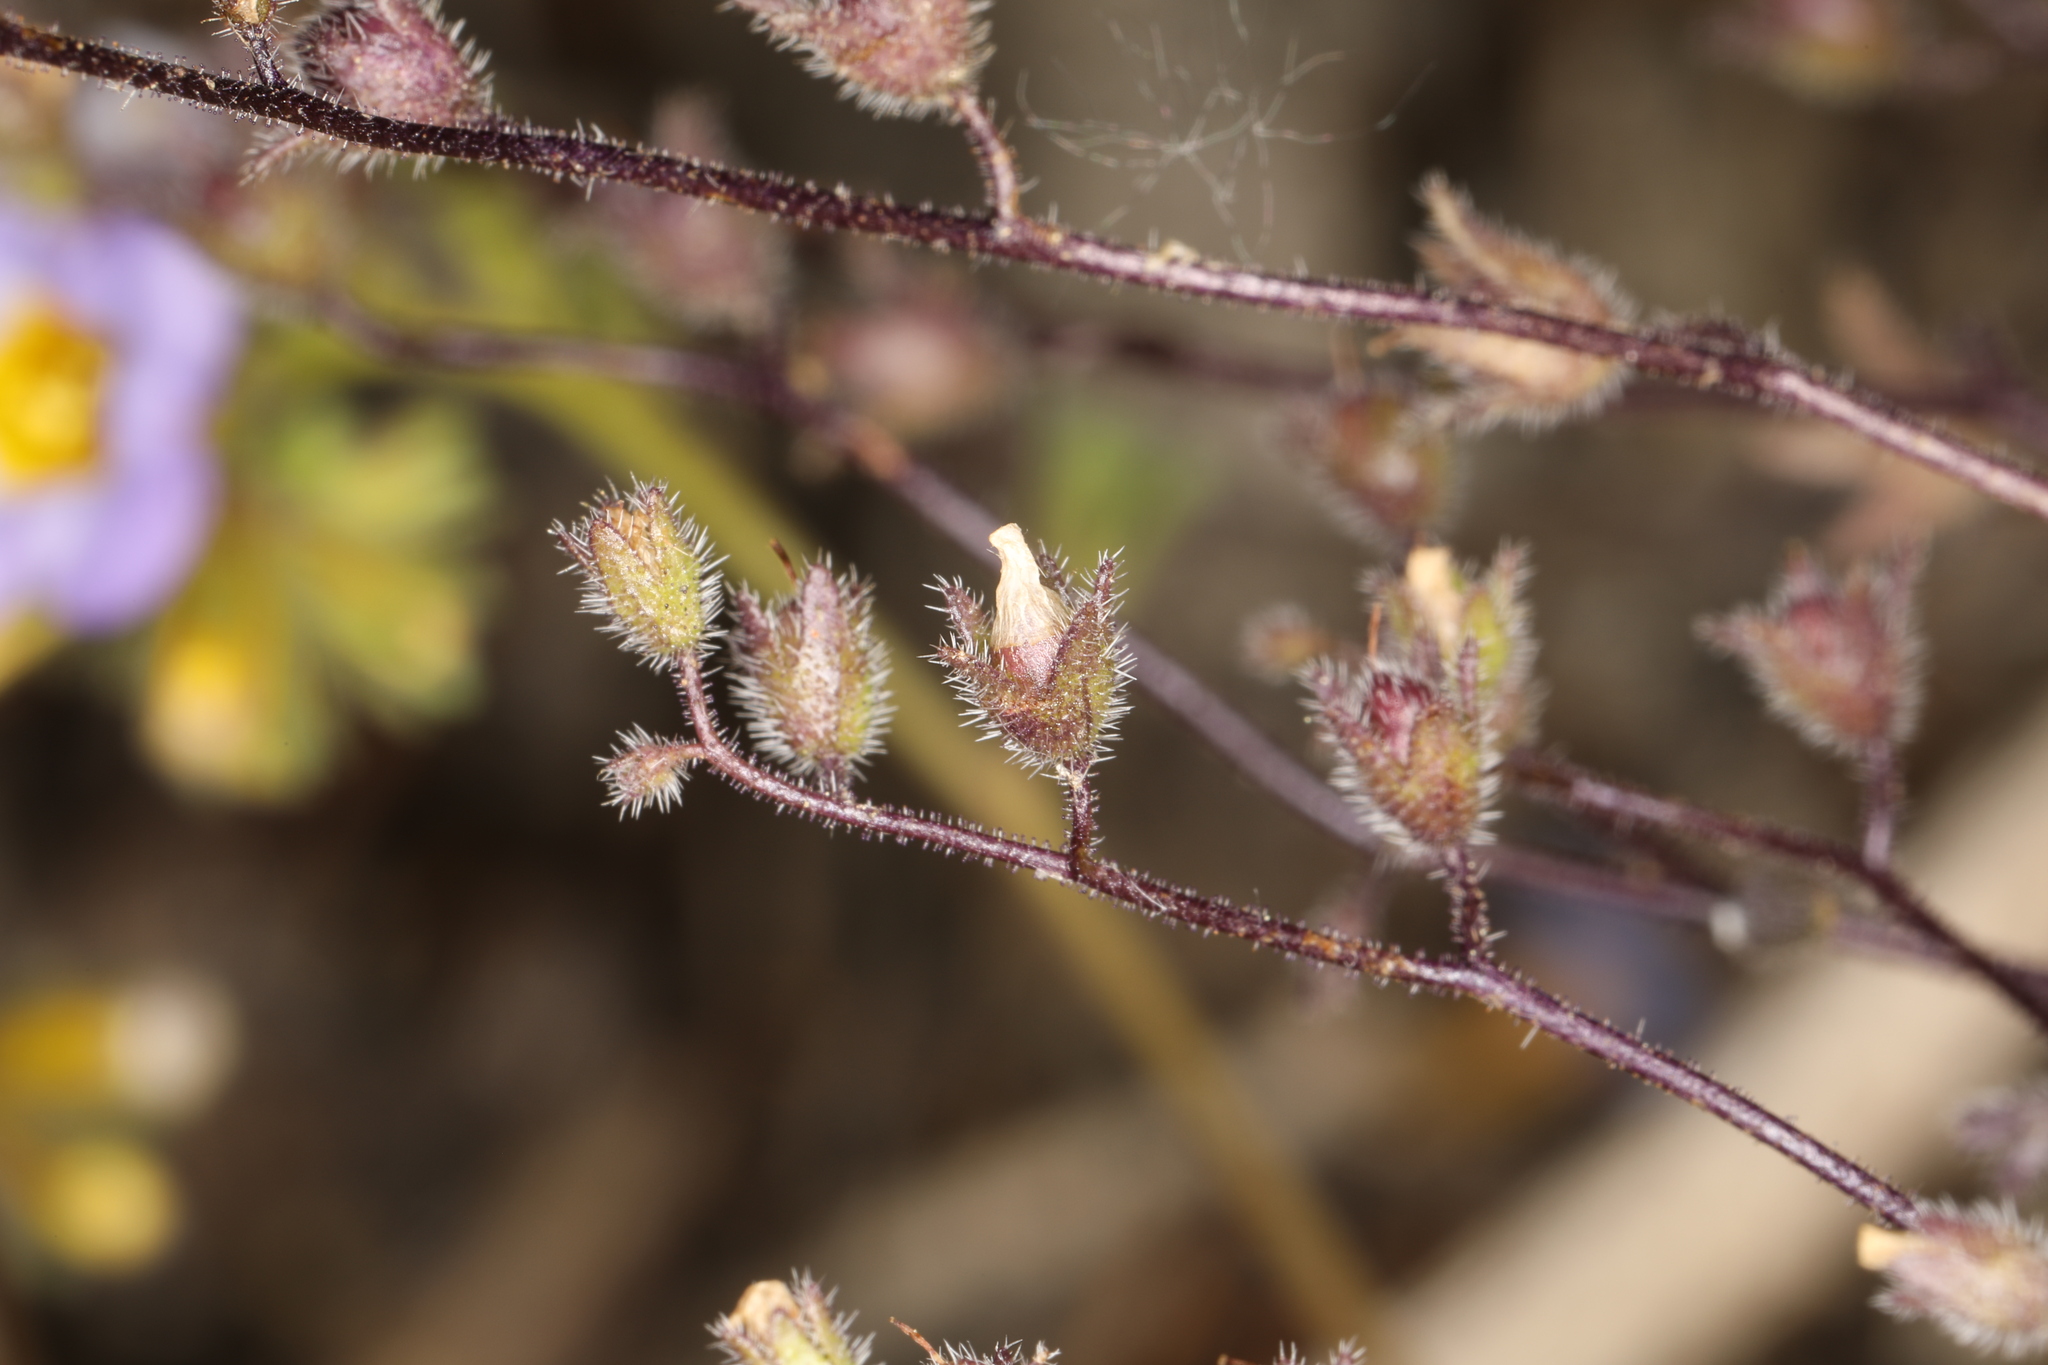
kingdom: Plantae
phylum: Tracheophyta
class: Magnoliopsida
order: Boraginales
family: Hydrophyllaceae
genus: Eucrypta
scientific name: Eucrypta micrantha
